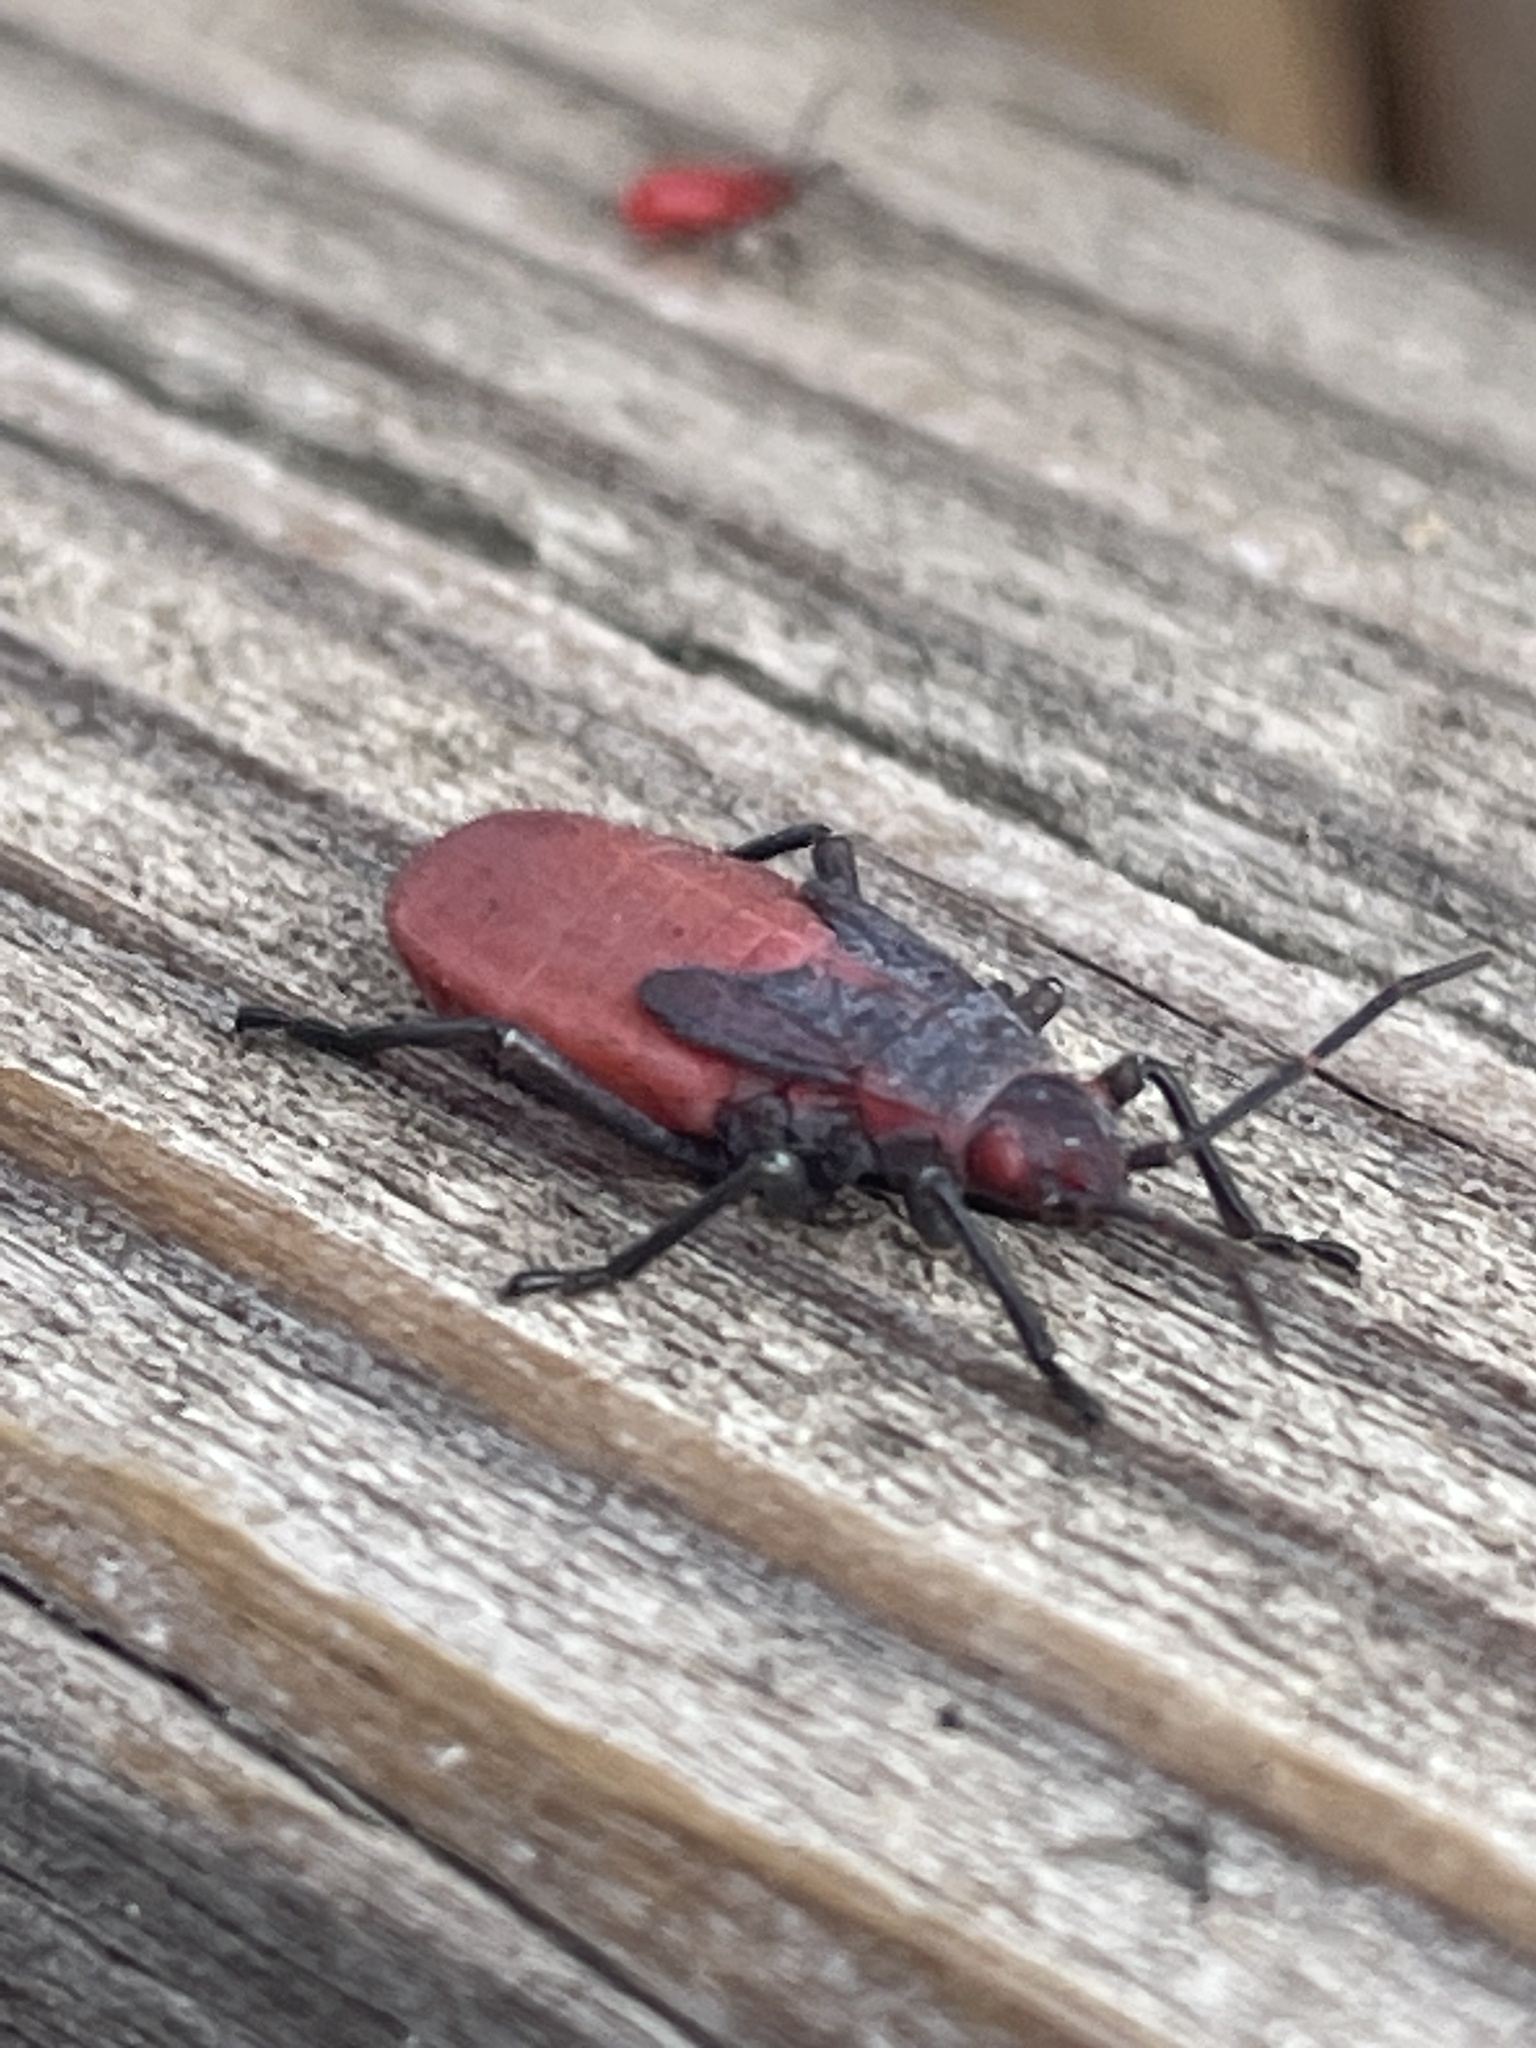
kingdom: Animalia
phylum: Arthropoda
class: Insecta
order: Hemiptera
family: Rhopalidae
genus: Jadera
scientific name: Jadera haematoloma
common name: Red-shouldered bug
